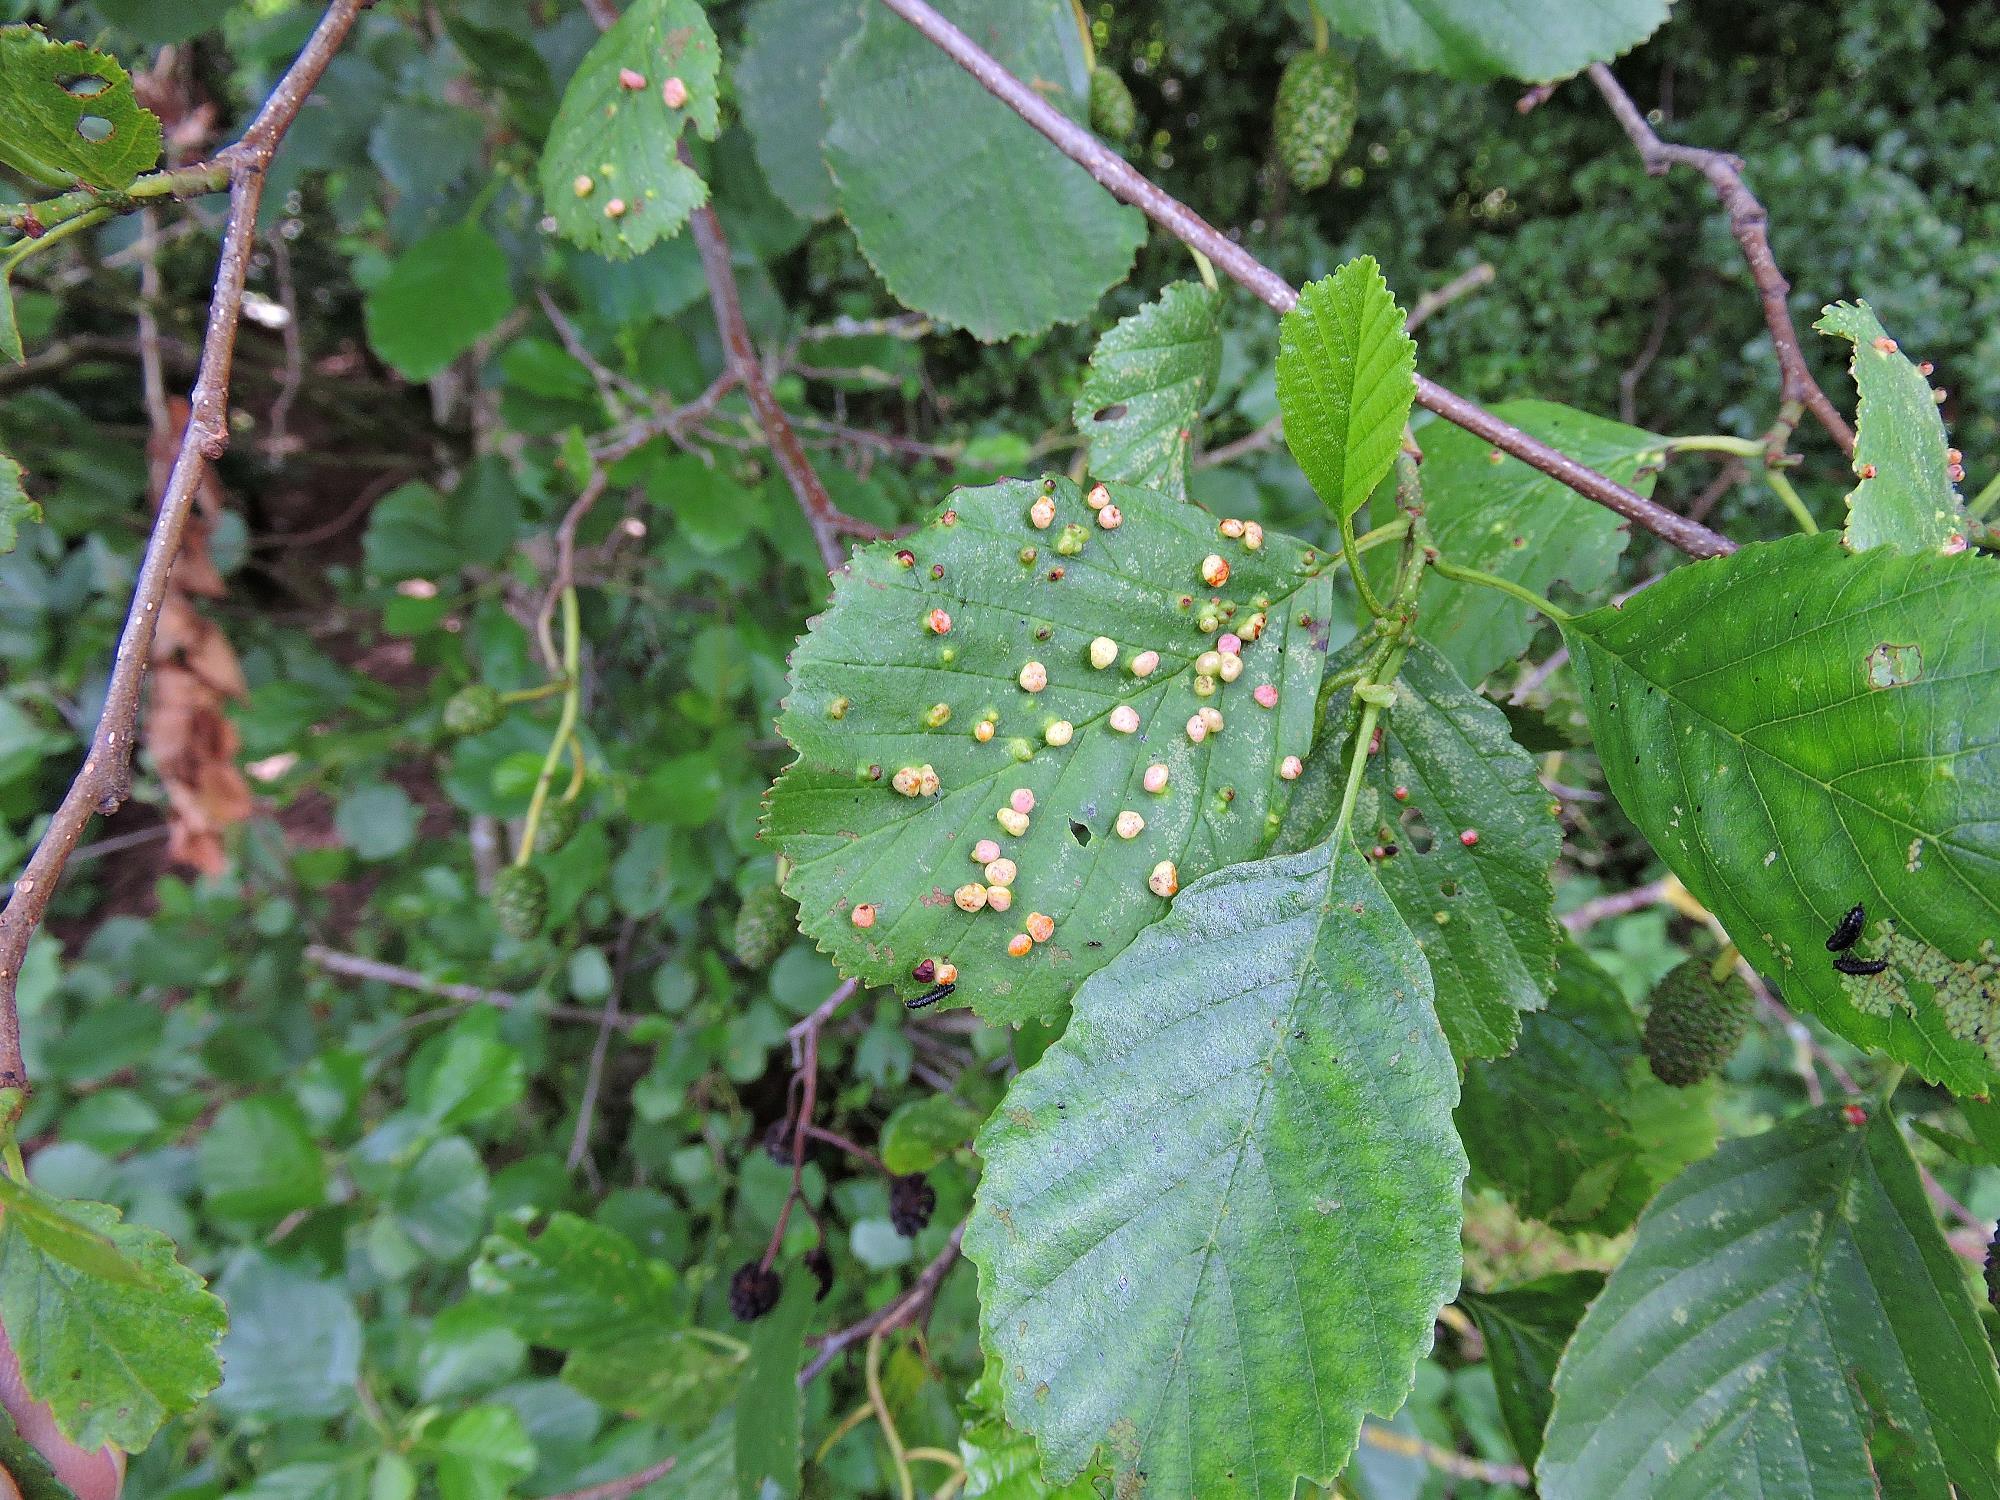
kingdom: Animalia
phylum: Arthropoda
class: Arachnida
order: Trombidiformes
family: Eriophyidae
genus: Eriophyes
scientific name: Eriophyes laevis
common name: Alder leaf gall mite
